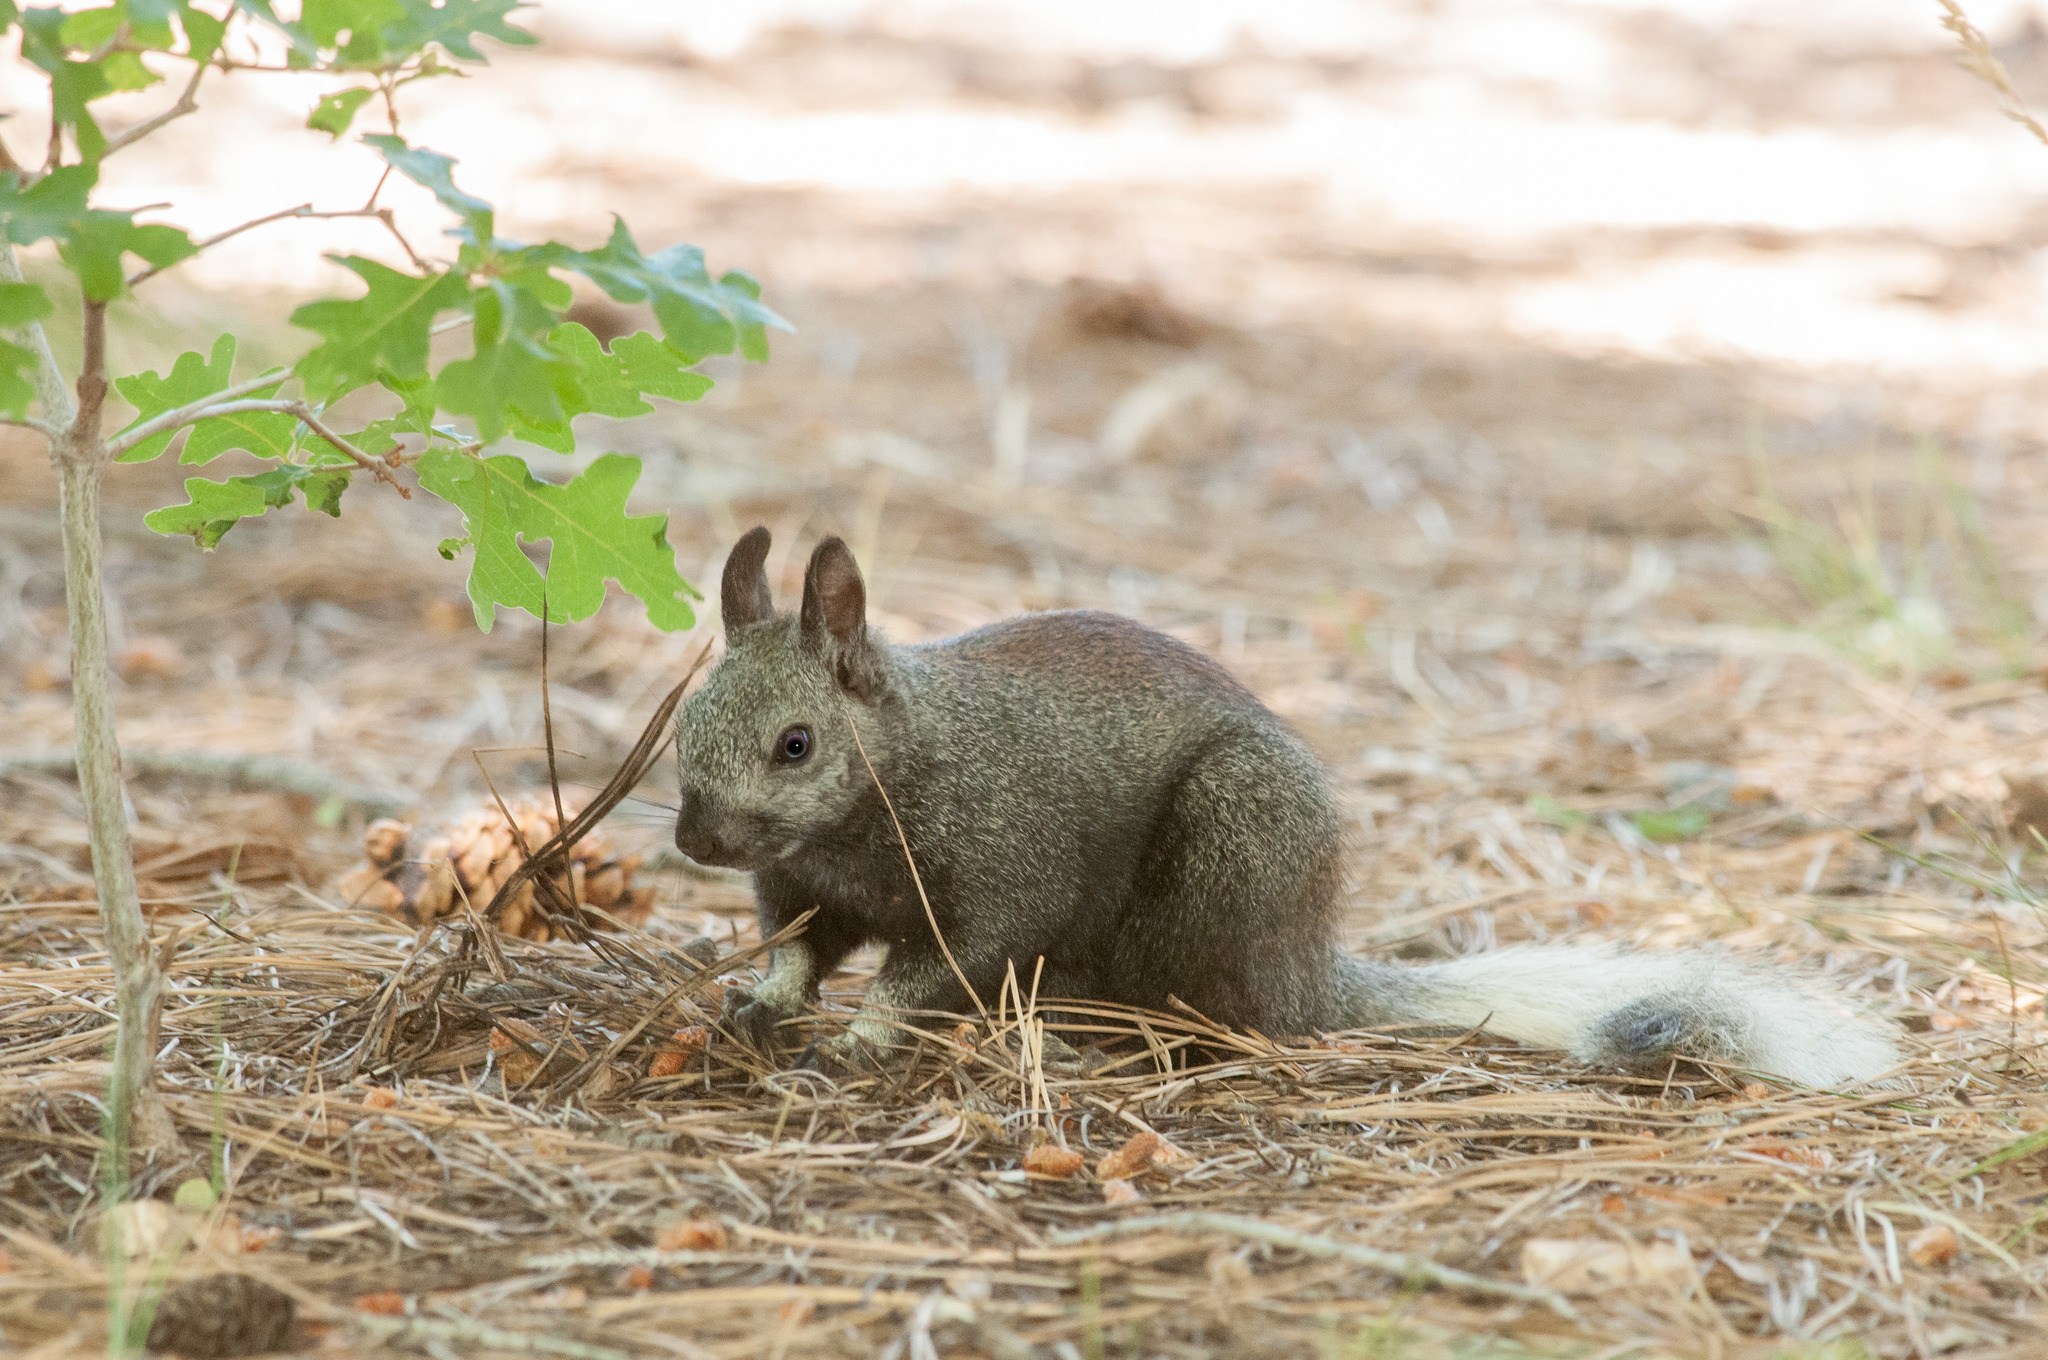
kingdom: Animalia
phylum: Chordata
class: Mammalia
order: Rodentia
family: Sciuridae
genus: Sciurus
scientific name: Sciurus aberti
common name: Abert's squirrel
